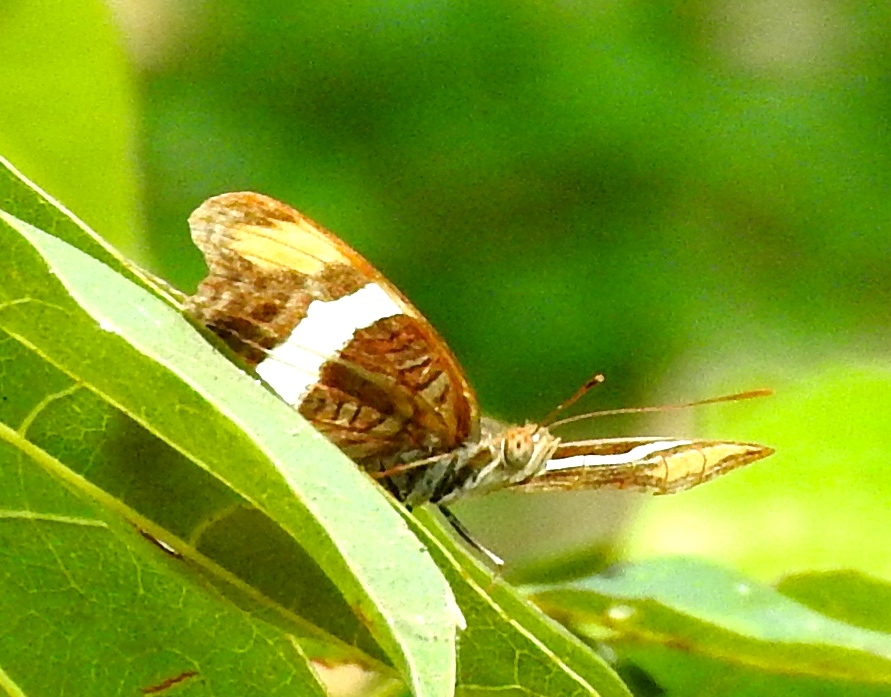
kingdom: Animalia
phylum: Arthropoda
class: Insecta
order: Lepidoptera
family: Nymphalidae
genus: Limenitis
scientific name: Limenitis fessonia
